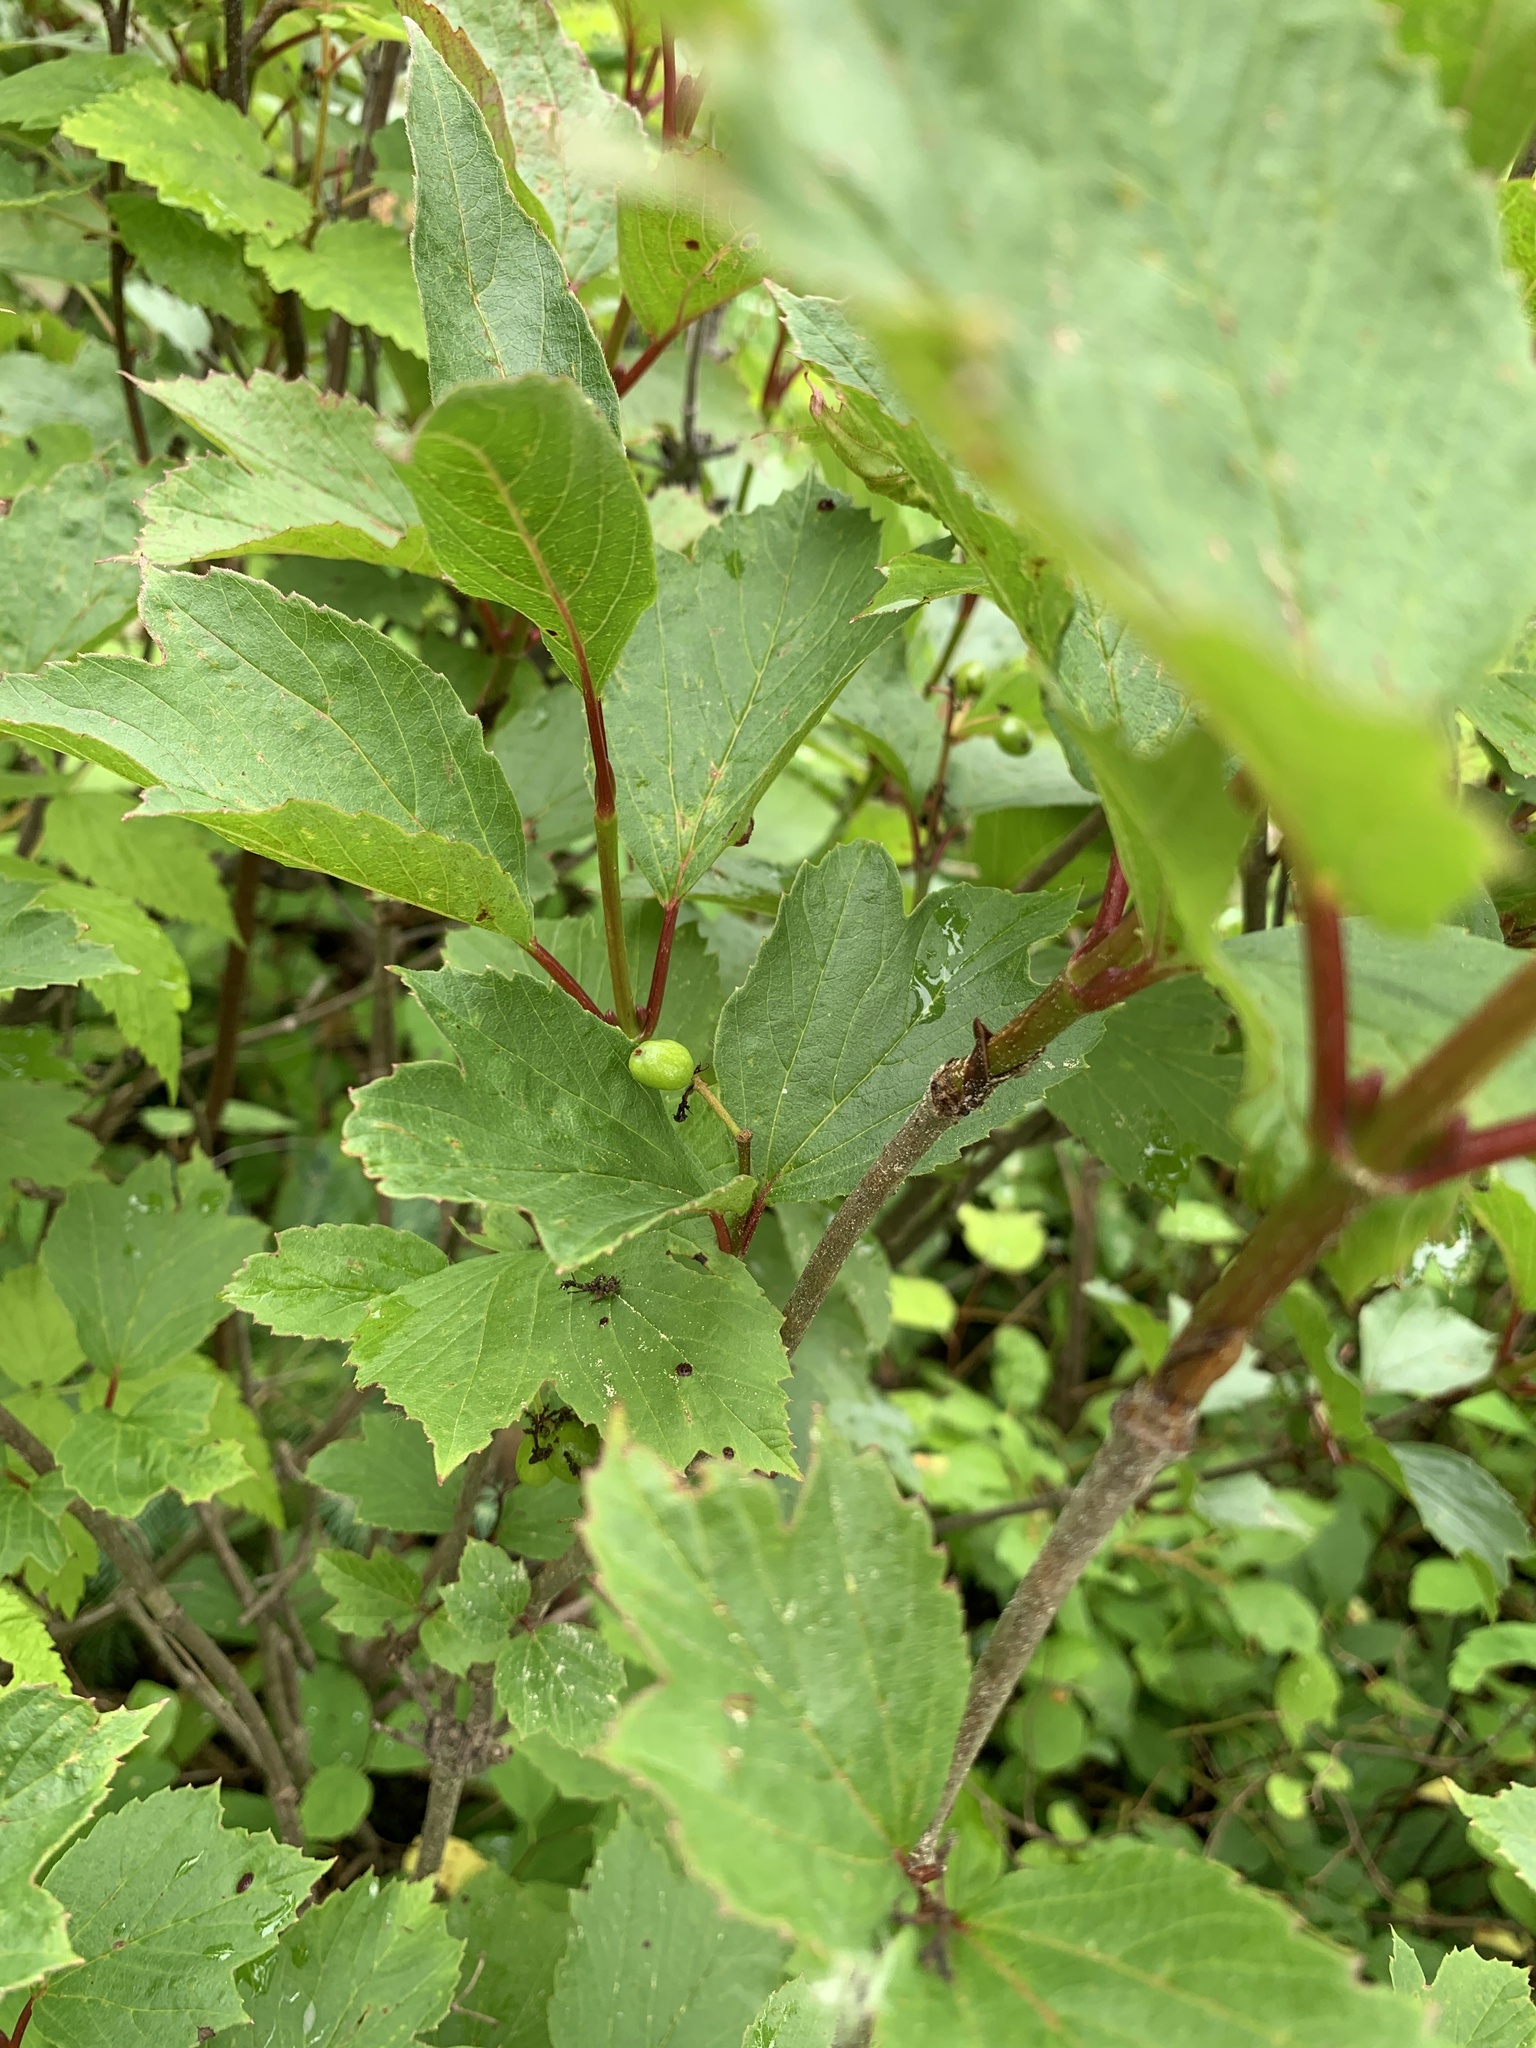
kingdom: Plantae
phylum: Tracheophyta
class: Magnoliopsida
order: Dipsacales
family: Viburnaceae
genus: Viburnum
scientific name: Viburnum edule
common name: Mooseberry
